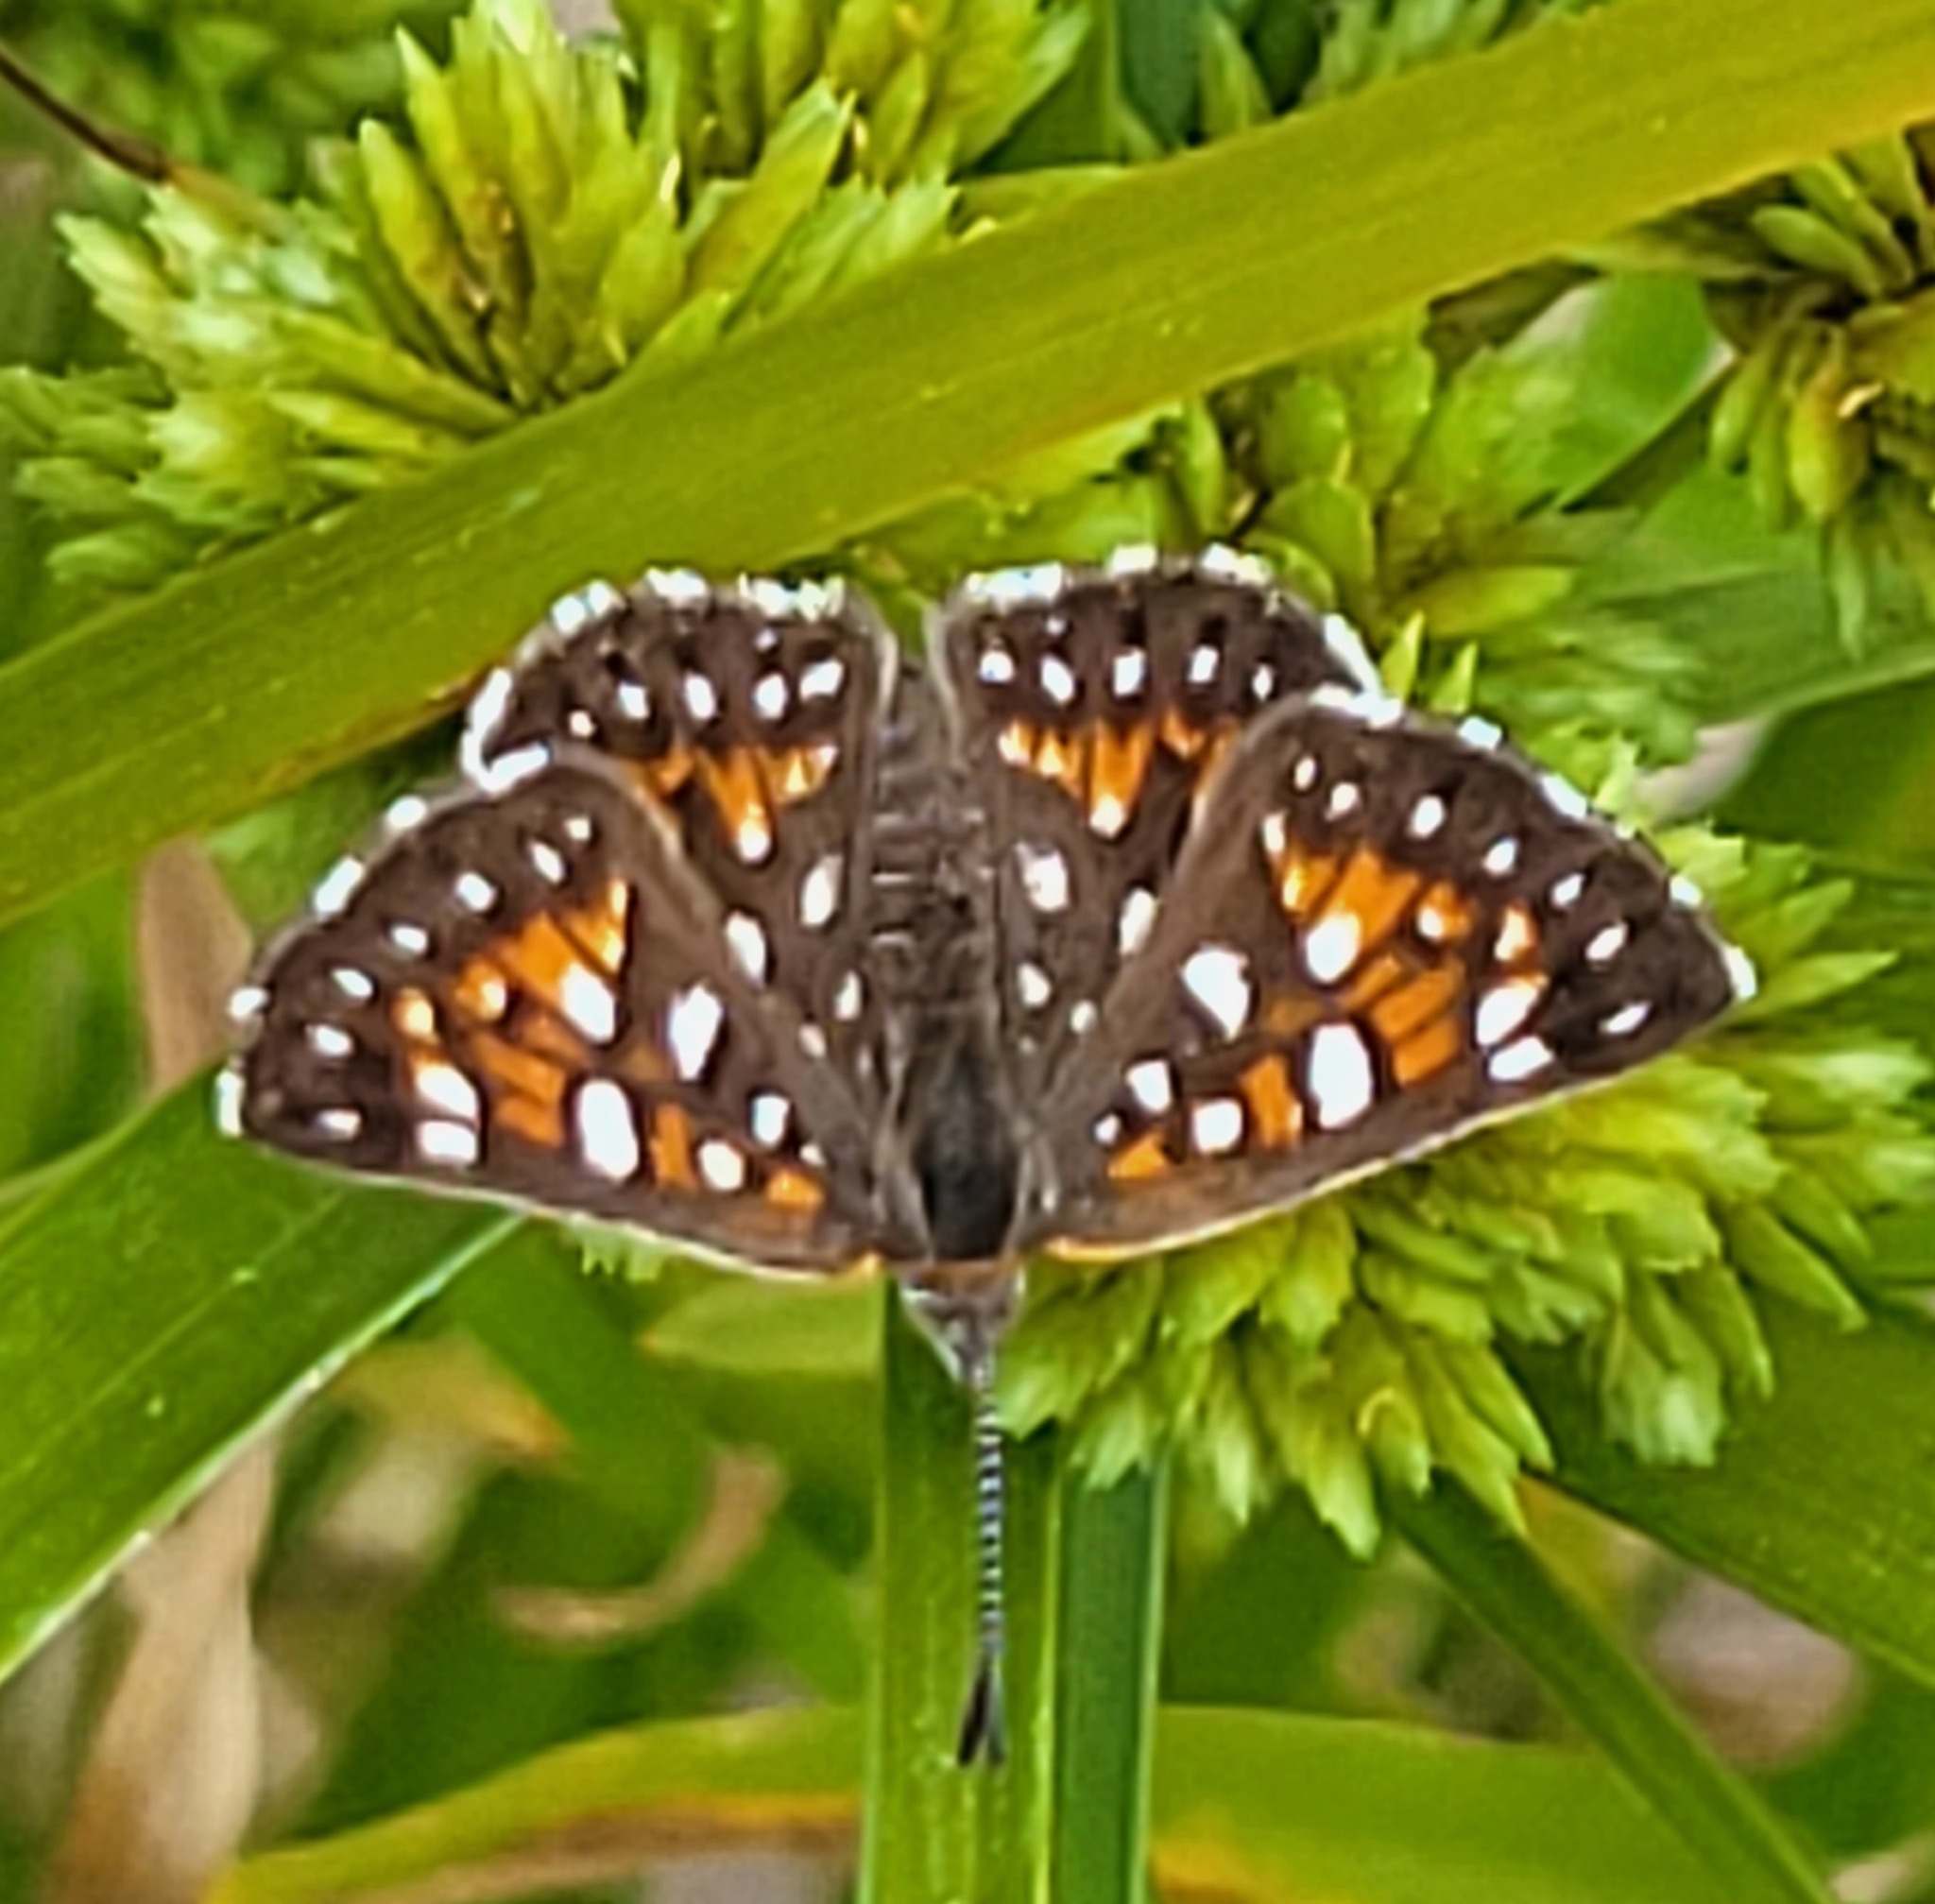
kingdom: Animalia
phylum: Arthropoda
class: Insecta
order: Lepidoptera
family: Riodinidae
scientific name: Riodinidae
